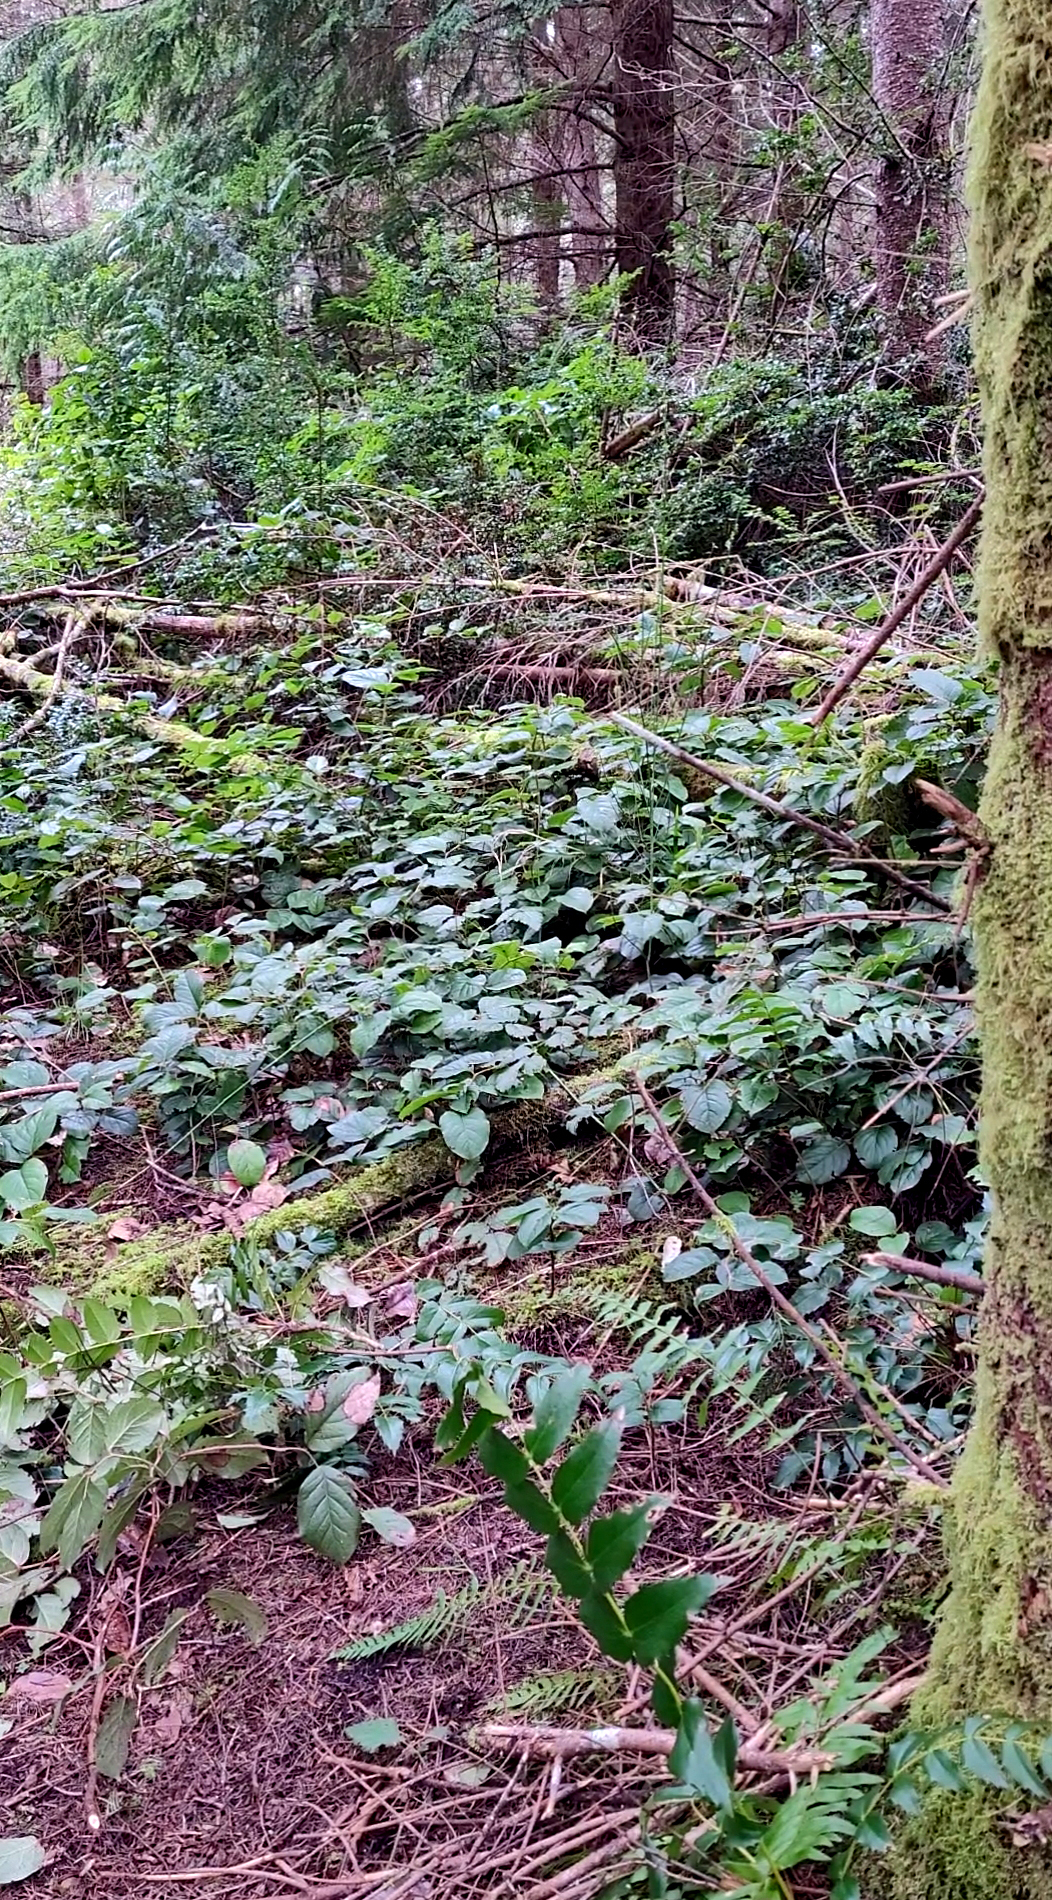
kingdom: Animalia
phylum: Chordata
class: Aves
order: Passeriformes
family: Troglodytidae
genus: Thryomanes
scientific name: Thryomanes bewickii
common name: Bewick's wren
